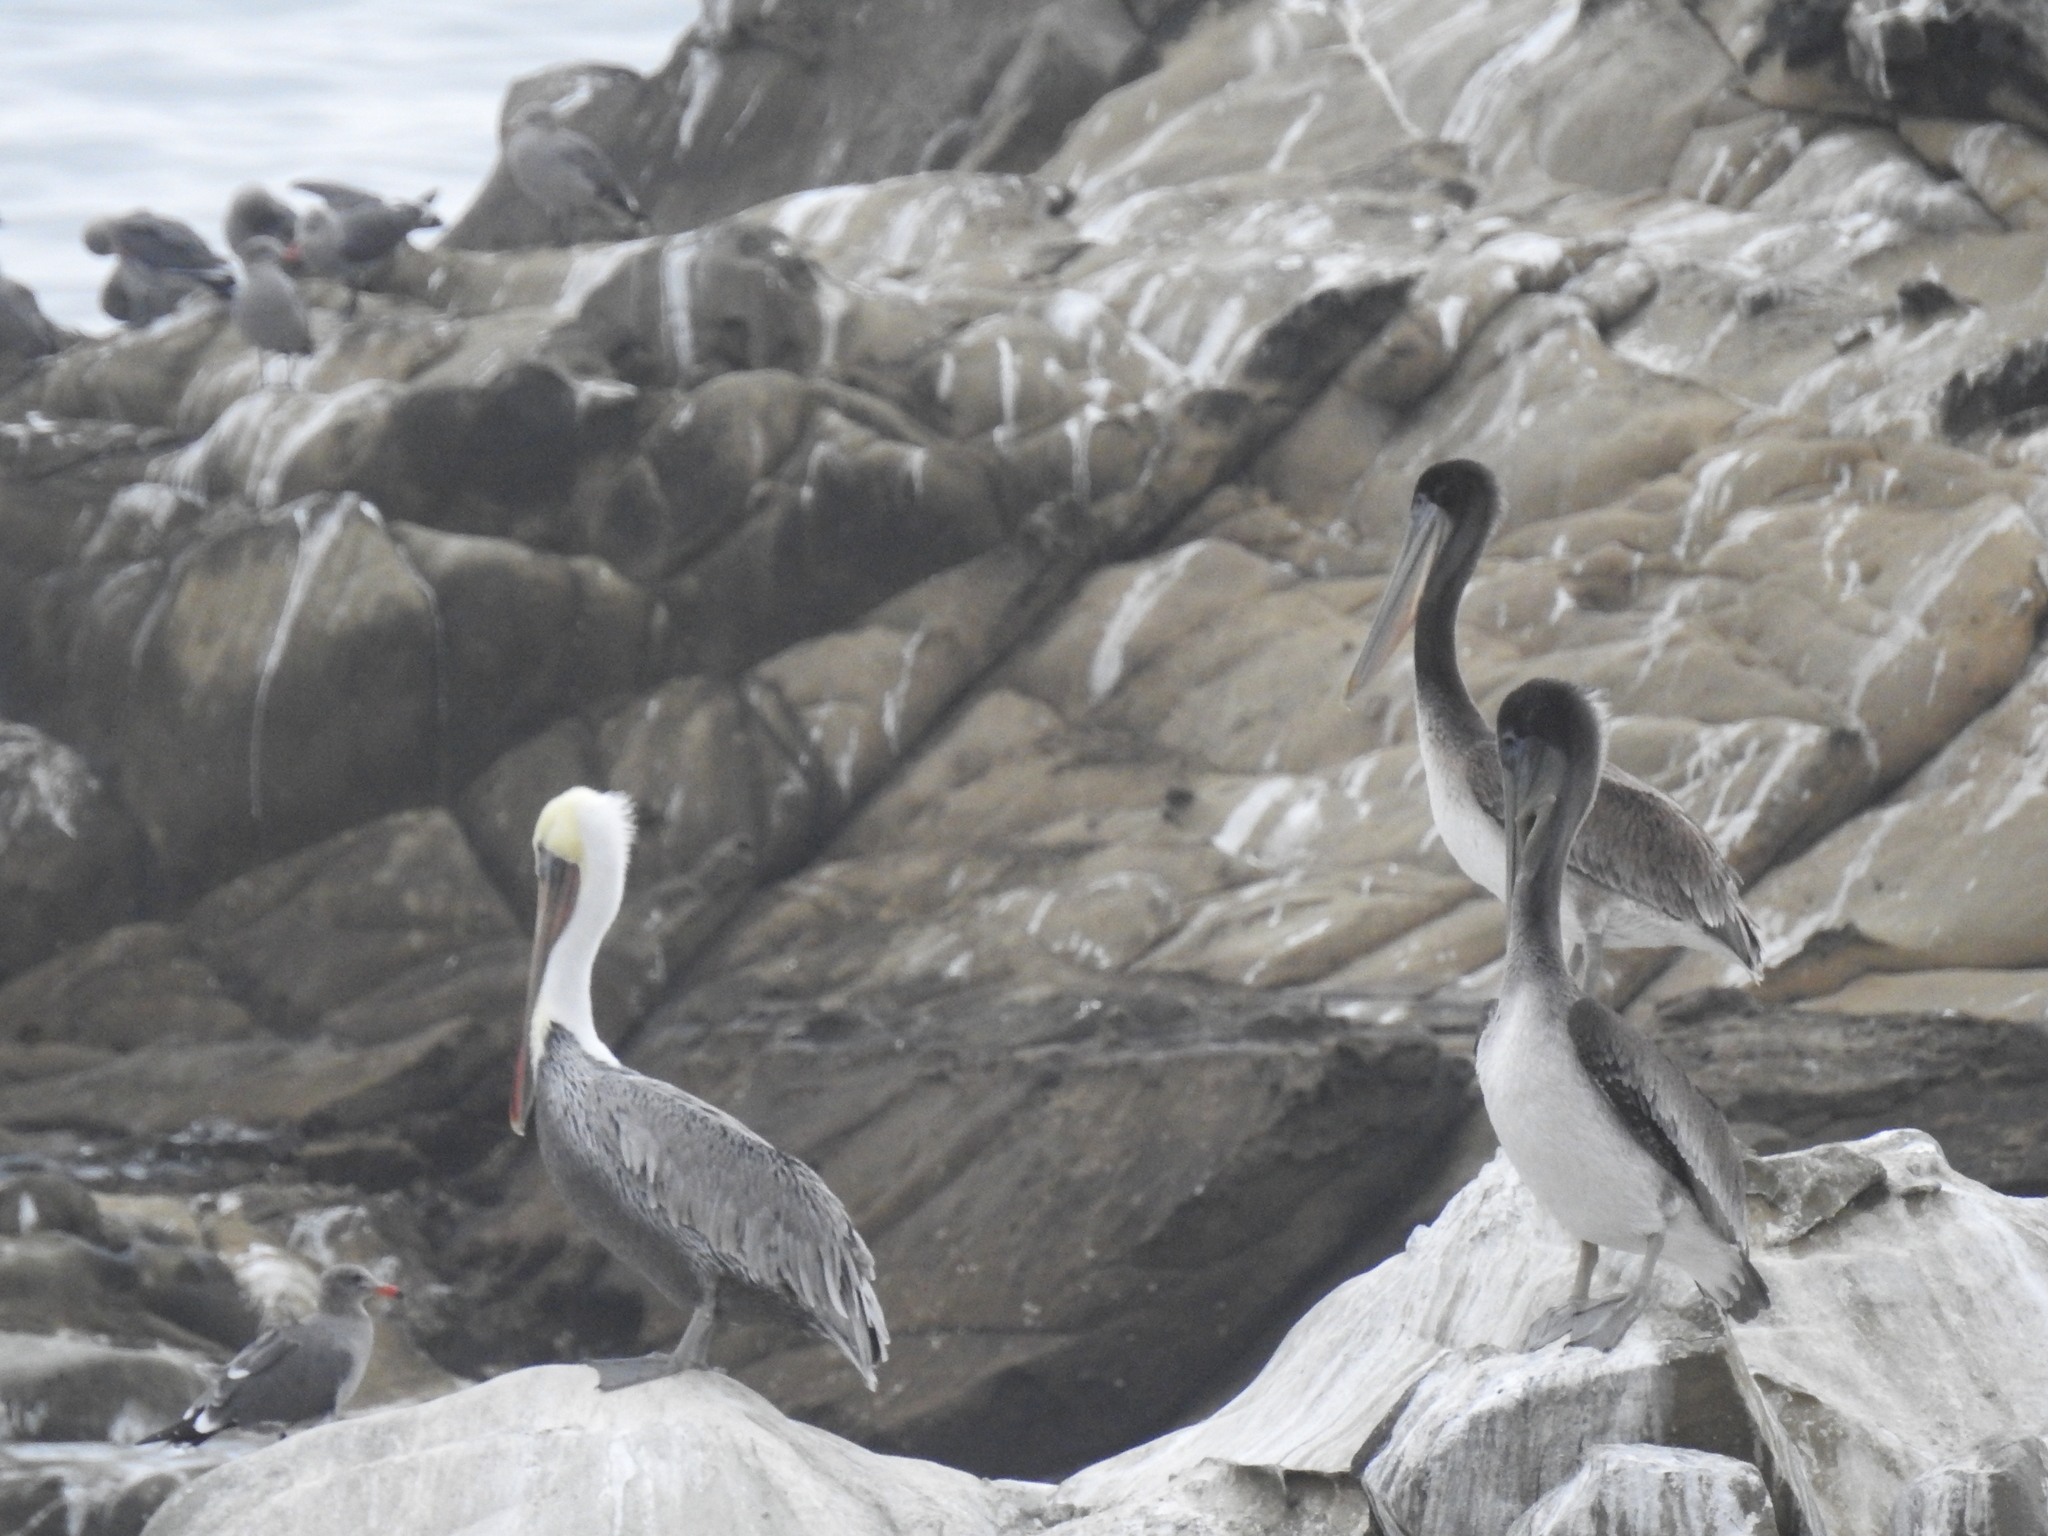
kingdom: Animalia
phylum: Chordata
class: Aves
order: Pelecaniformes
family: Pelecanidae
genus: Pelecanus
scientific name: Pelecanus occidentalis
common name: Brown pelican
